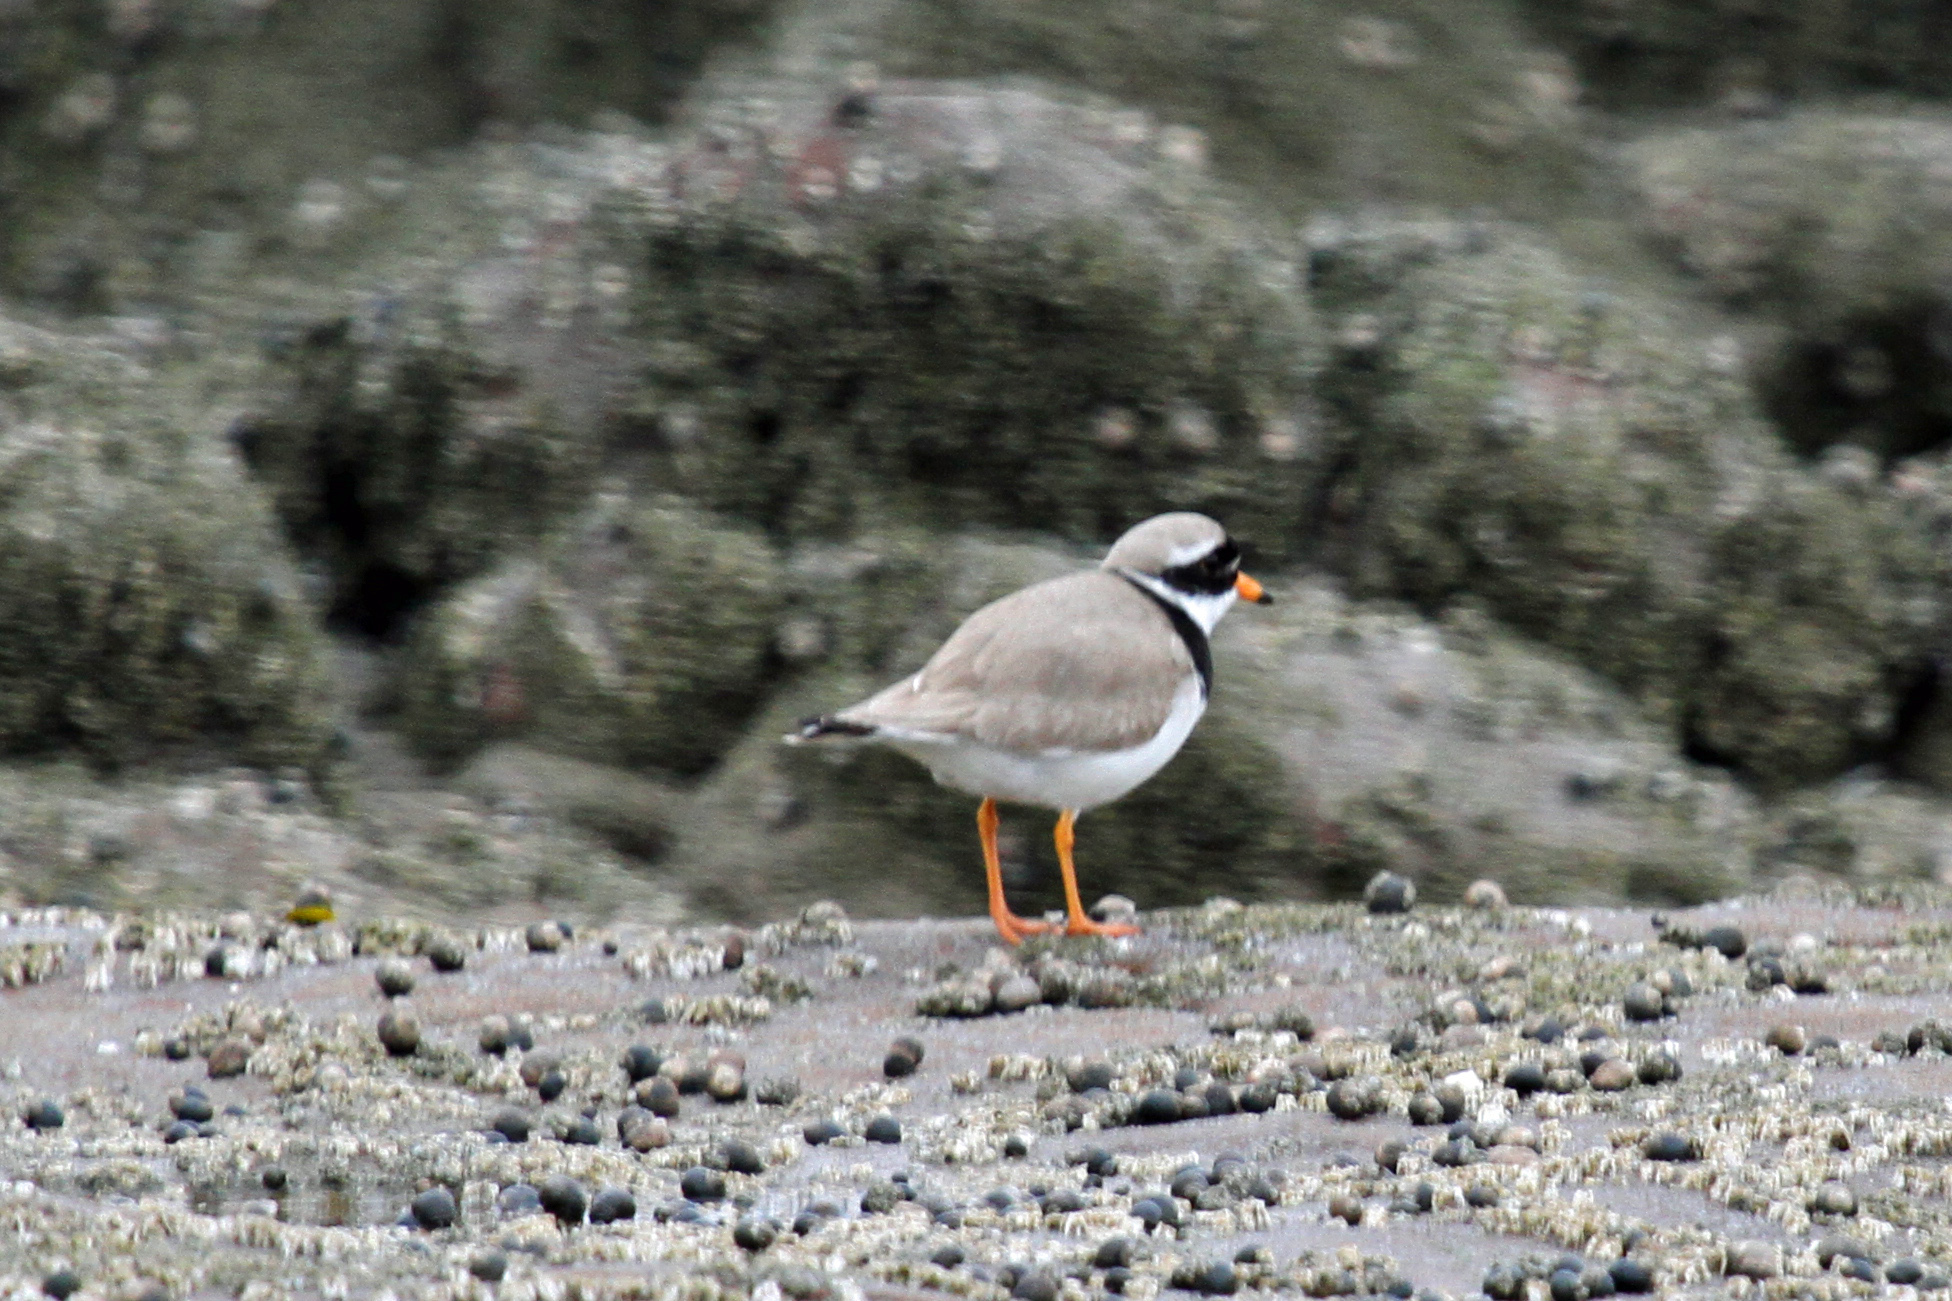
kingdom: Animalia
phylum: Chordata
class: Aves
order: Charadriiformes
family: Charadriidae
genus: Charadrius
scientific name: Charadrius hiaticula
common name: Common ringed plover
